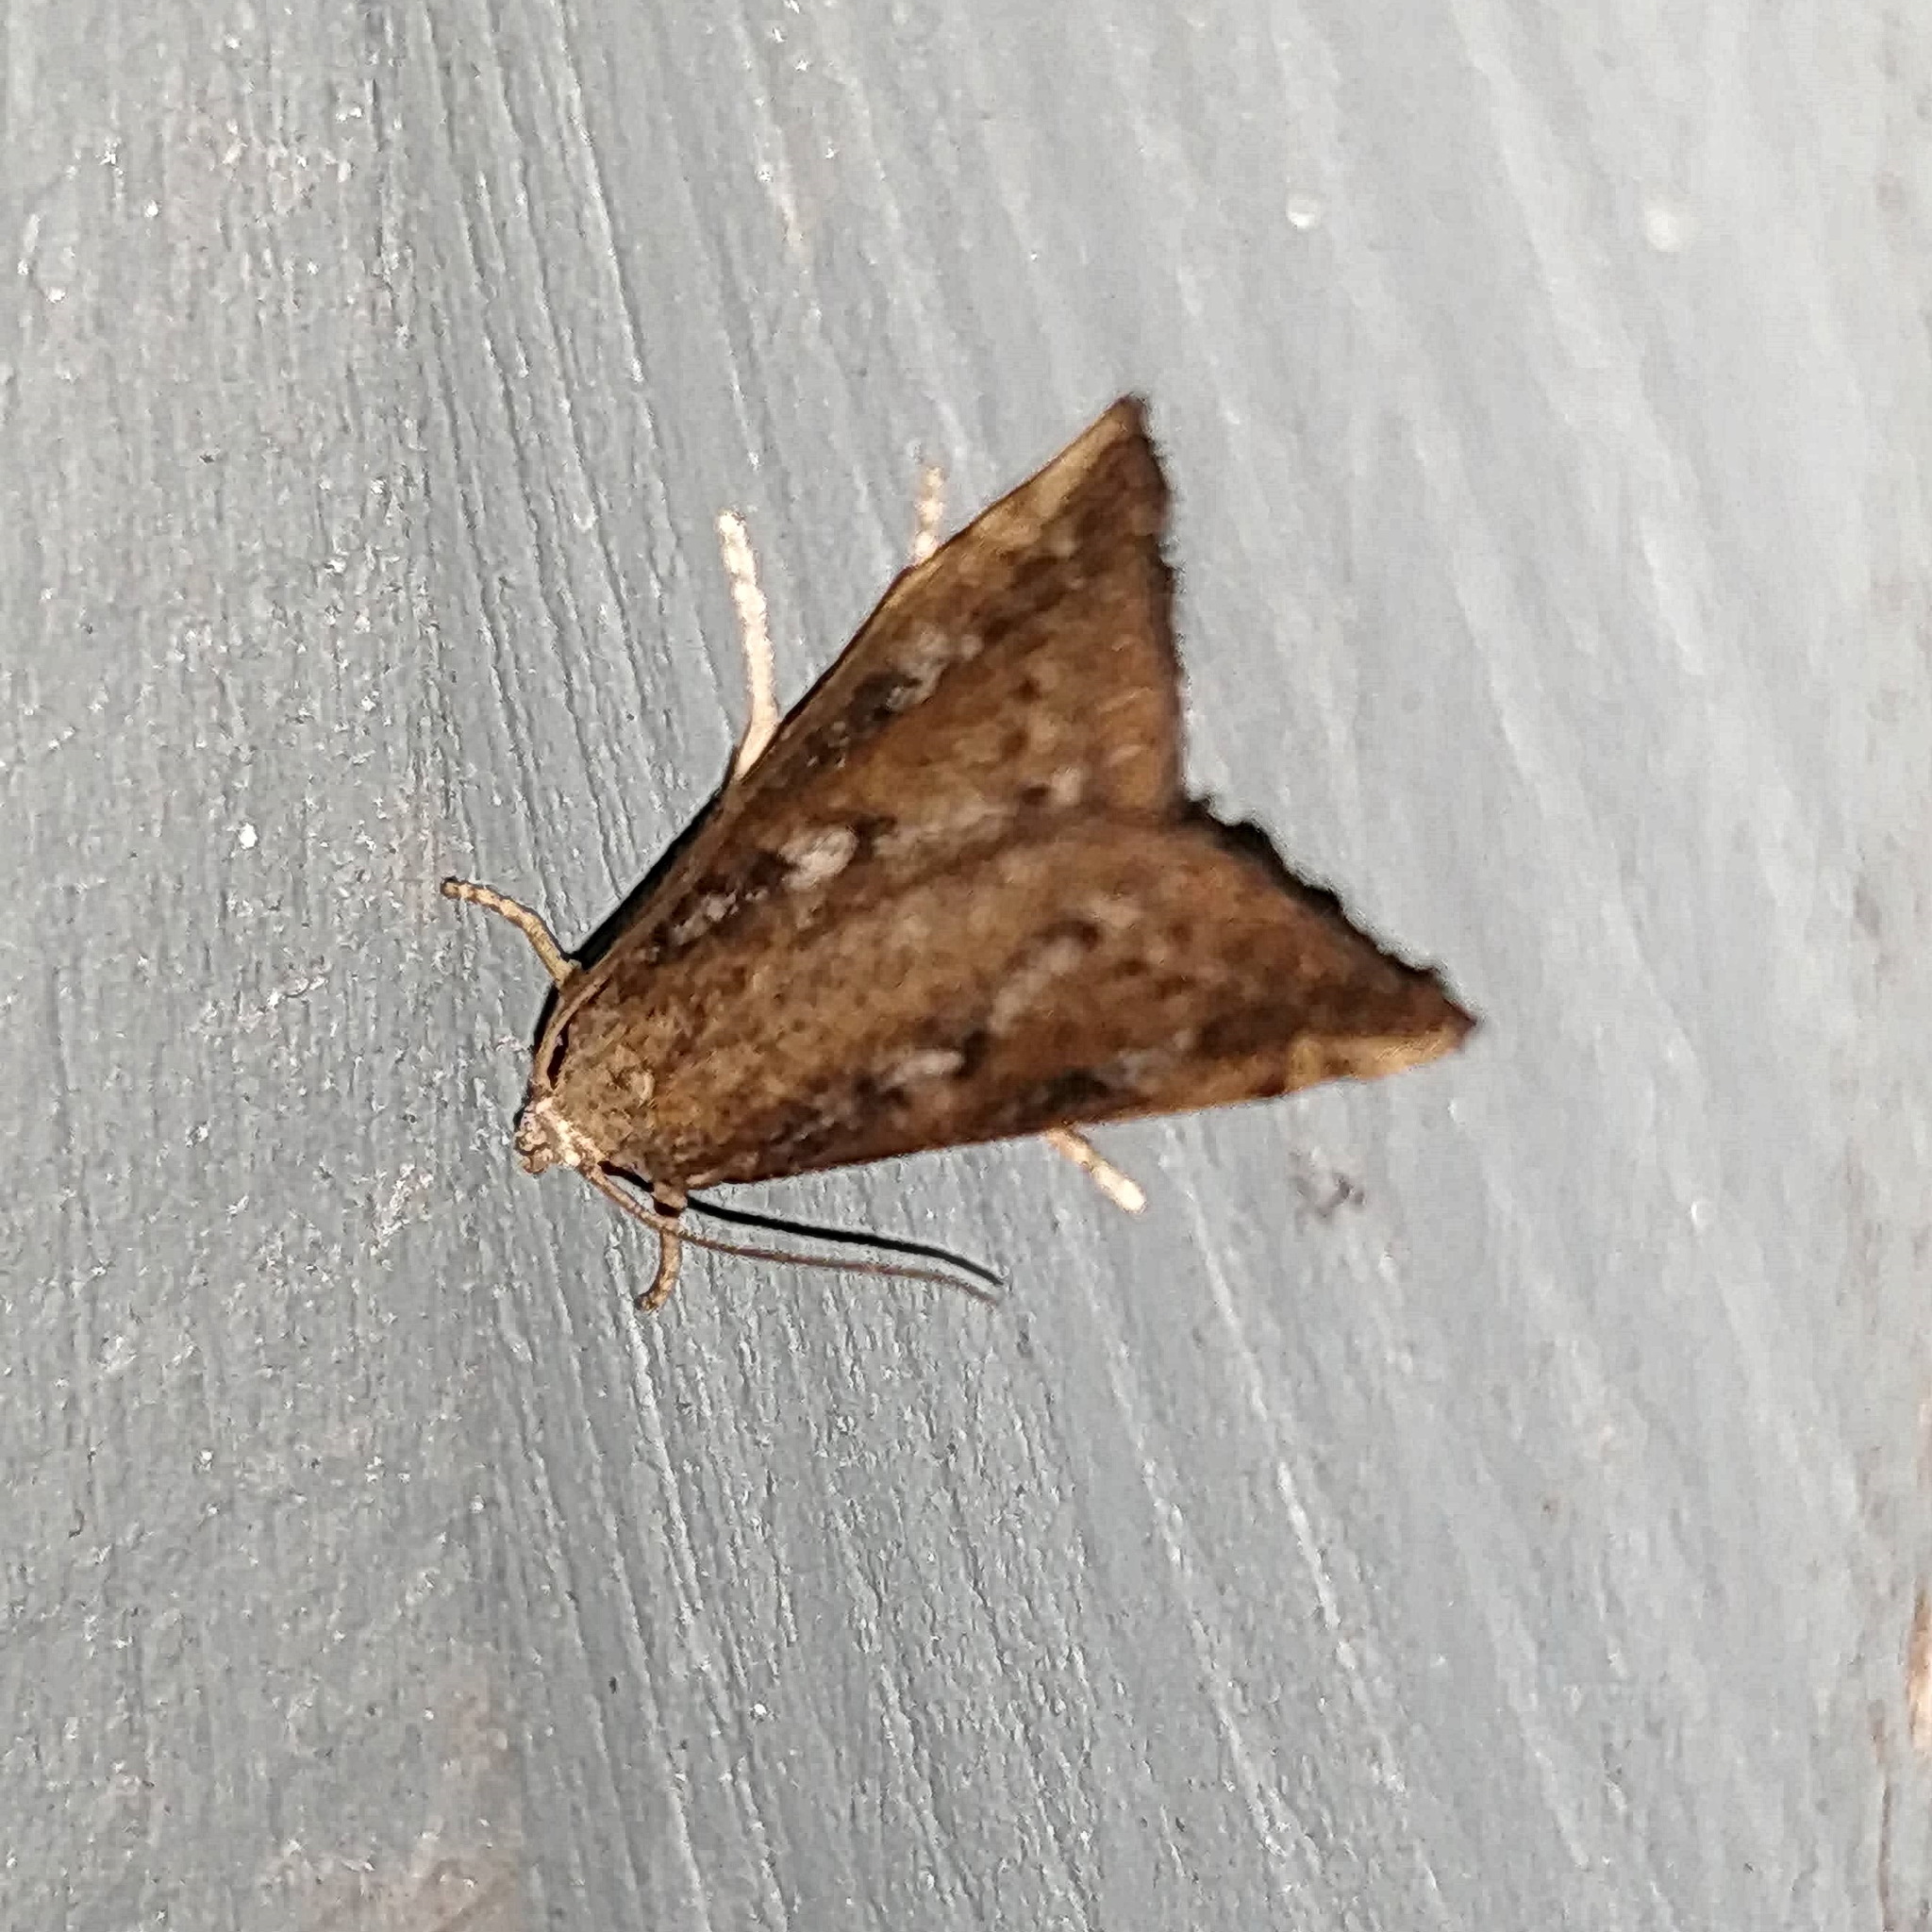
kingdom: Animalia
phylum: Arthropoda
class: Insecta
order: Lepidoptera
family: Crambidae
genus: Diastictis
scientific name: Diastictis ventralis
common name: White-spotted brown
